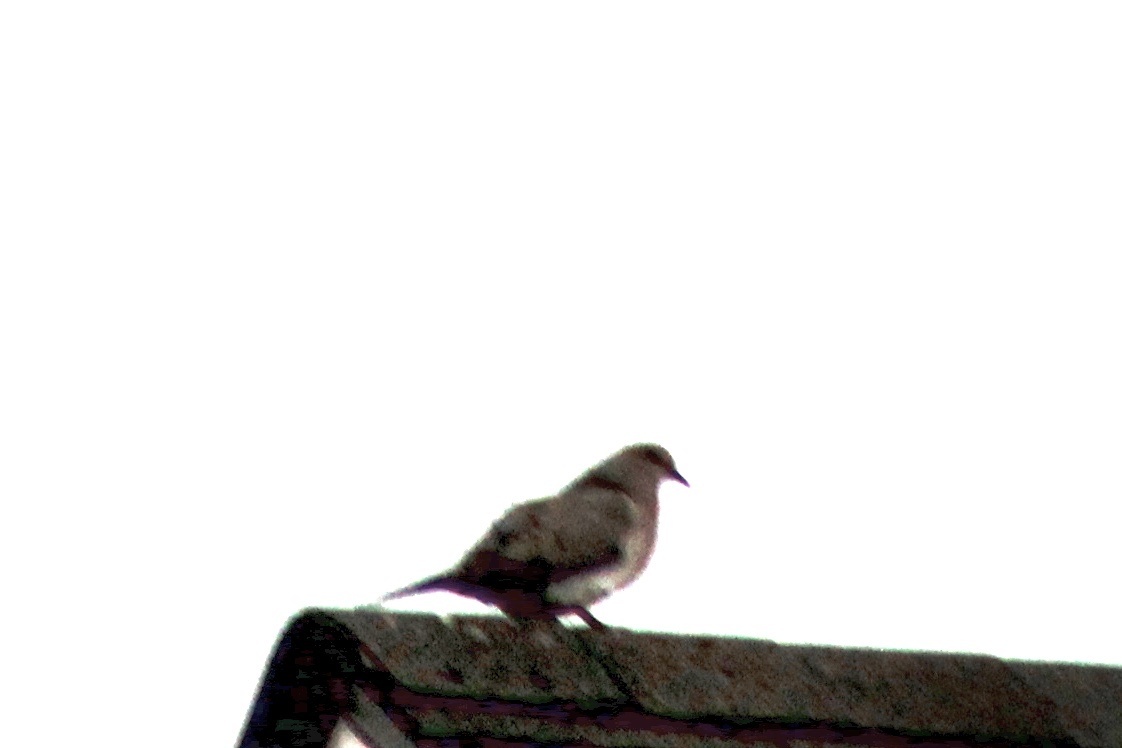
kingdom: Animalia
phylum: Chordata
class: Aves
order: Columbiformes
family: Columbidae
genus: Zenaida
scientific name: Zenaida macroura
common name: Mourning dove
